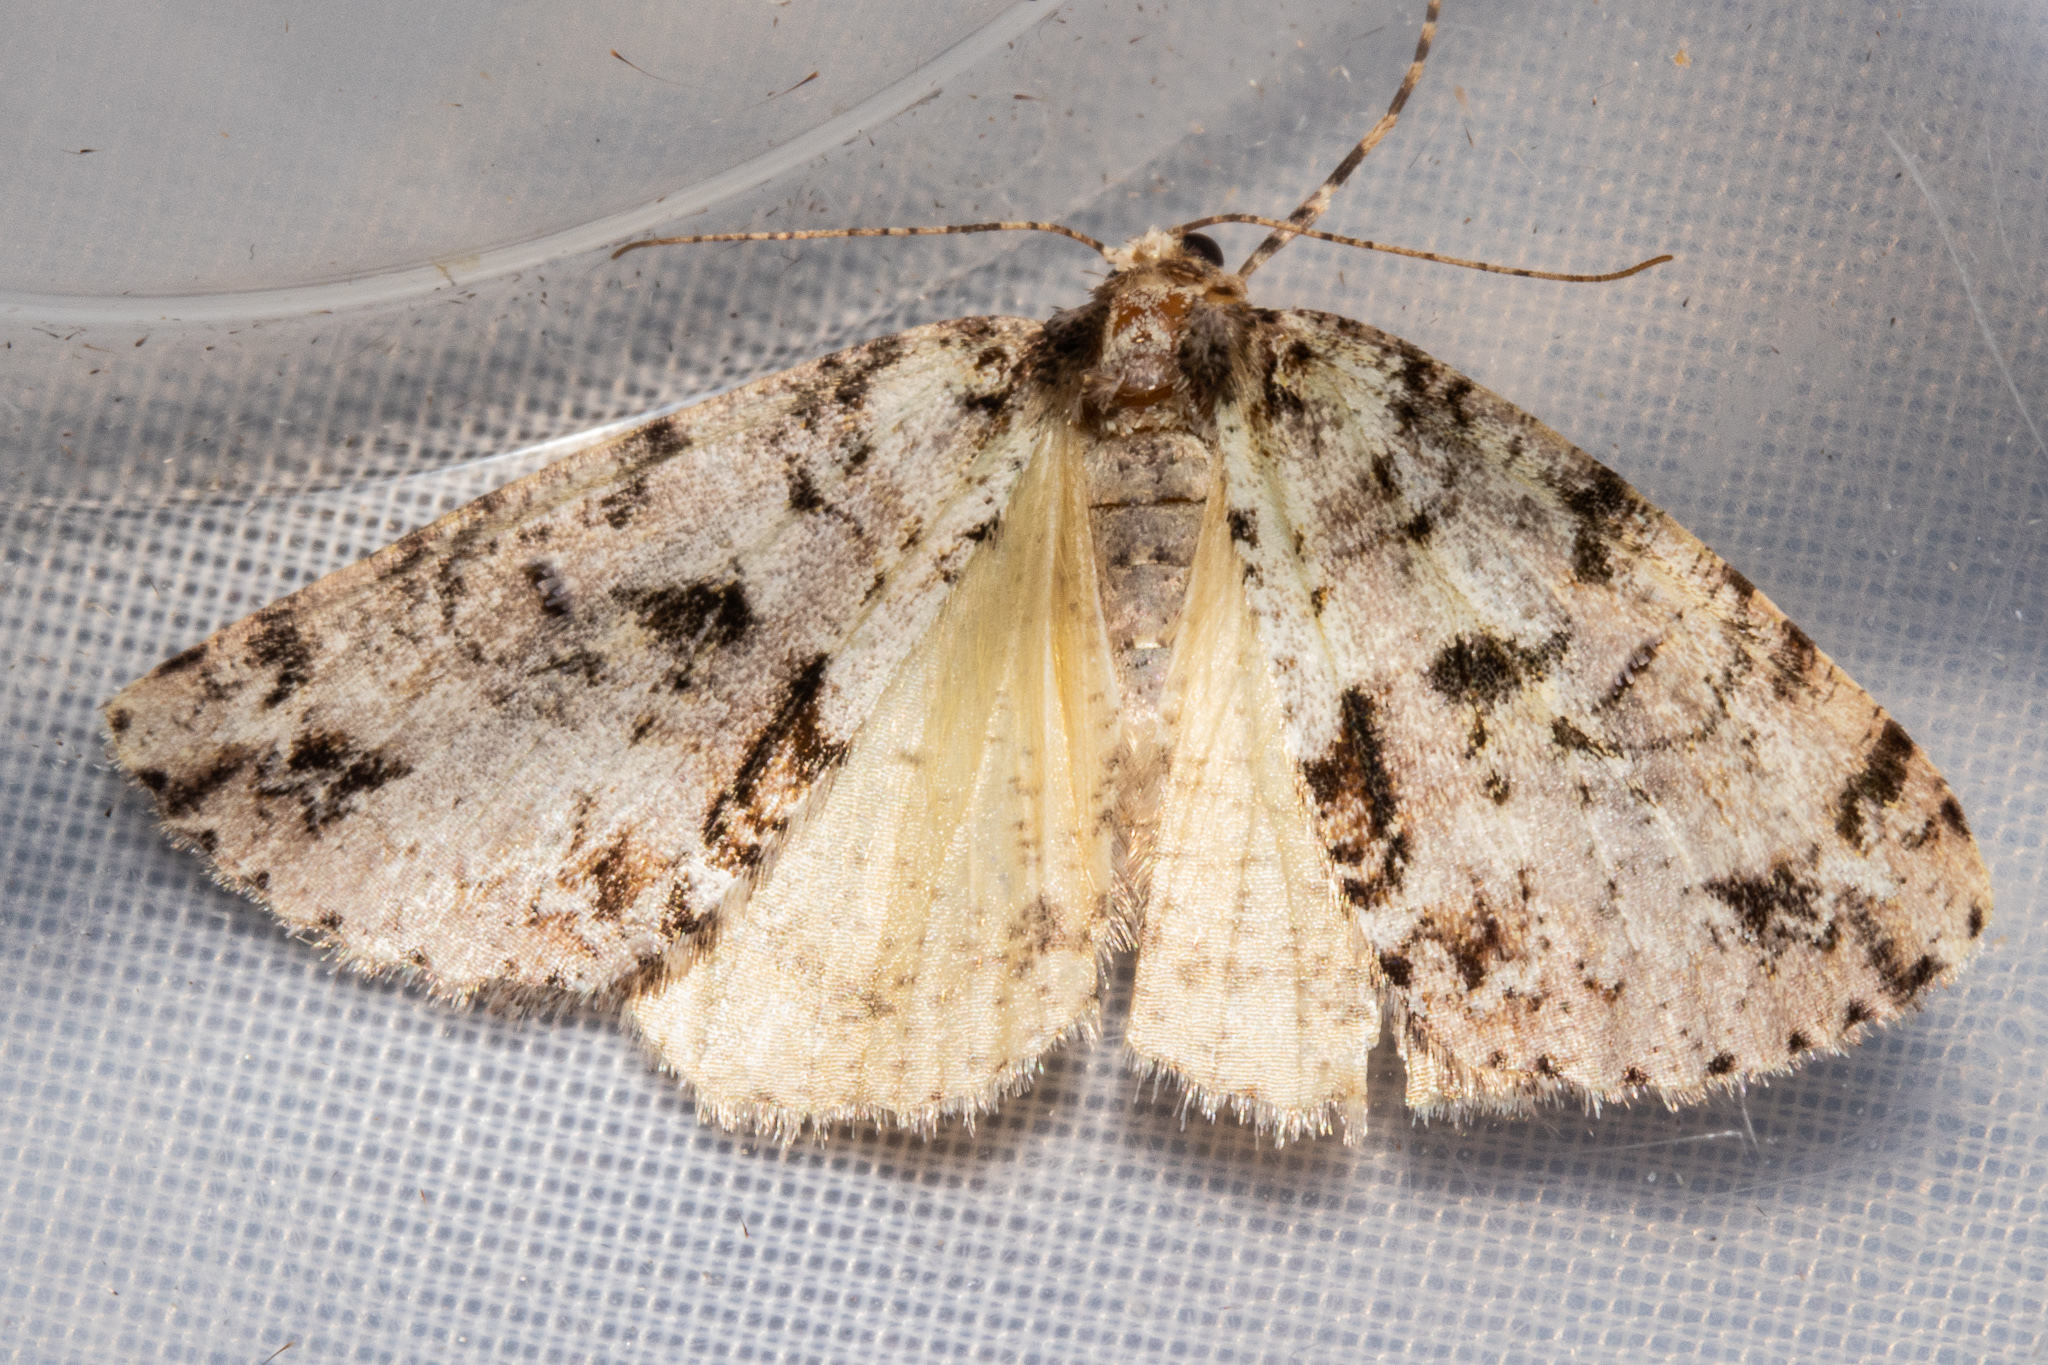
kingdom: Animalia
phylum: Arthropoda
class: Insecta
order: Lepidoptera
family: Geometridae
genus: Pseudocoremia
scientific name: Pseudocoremia suavis
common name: Common forest looper
